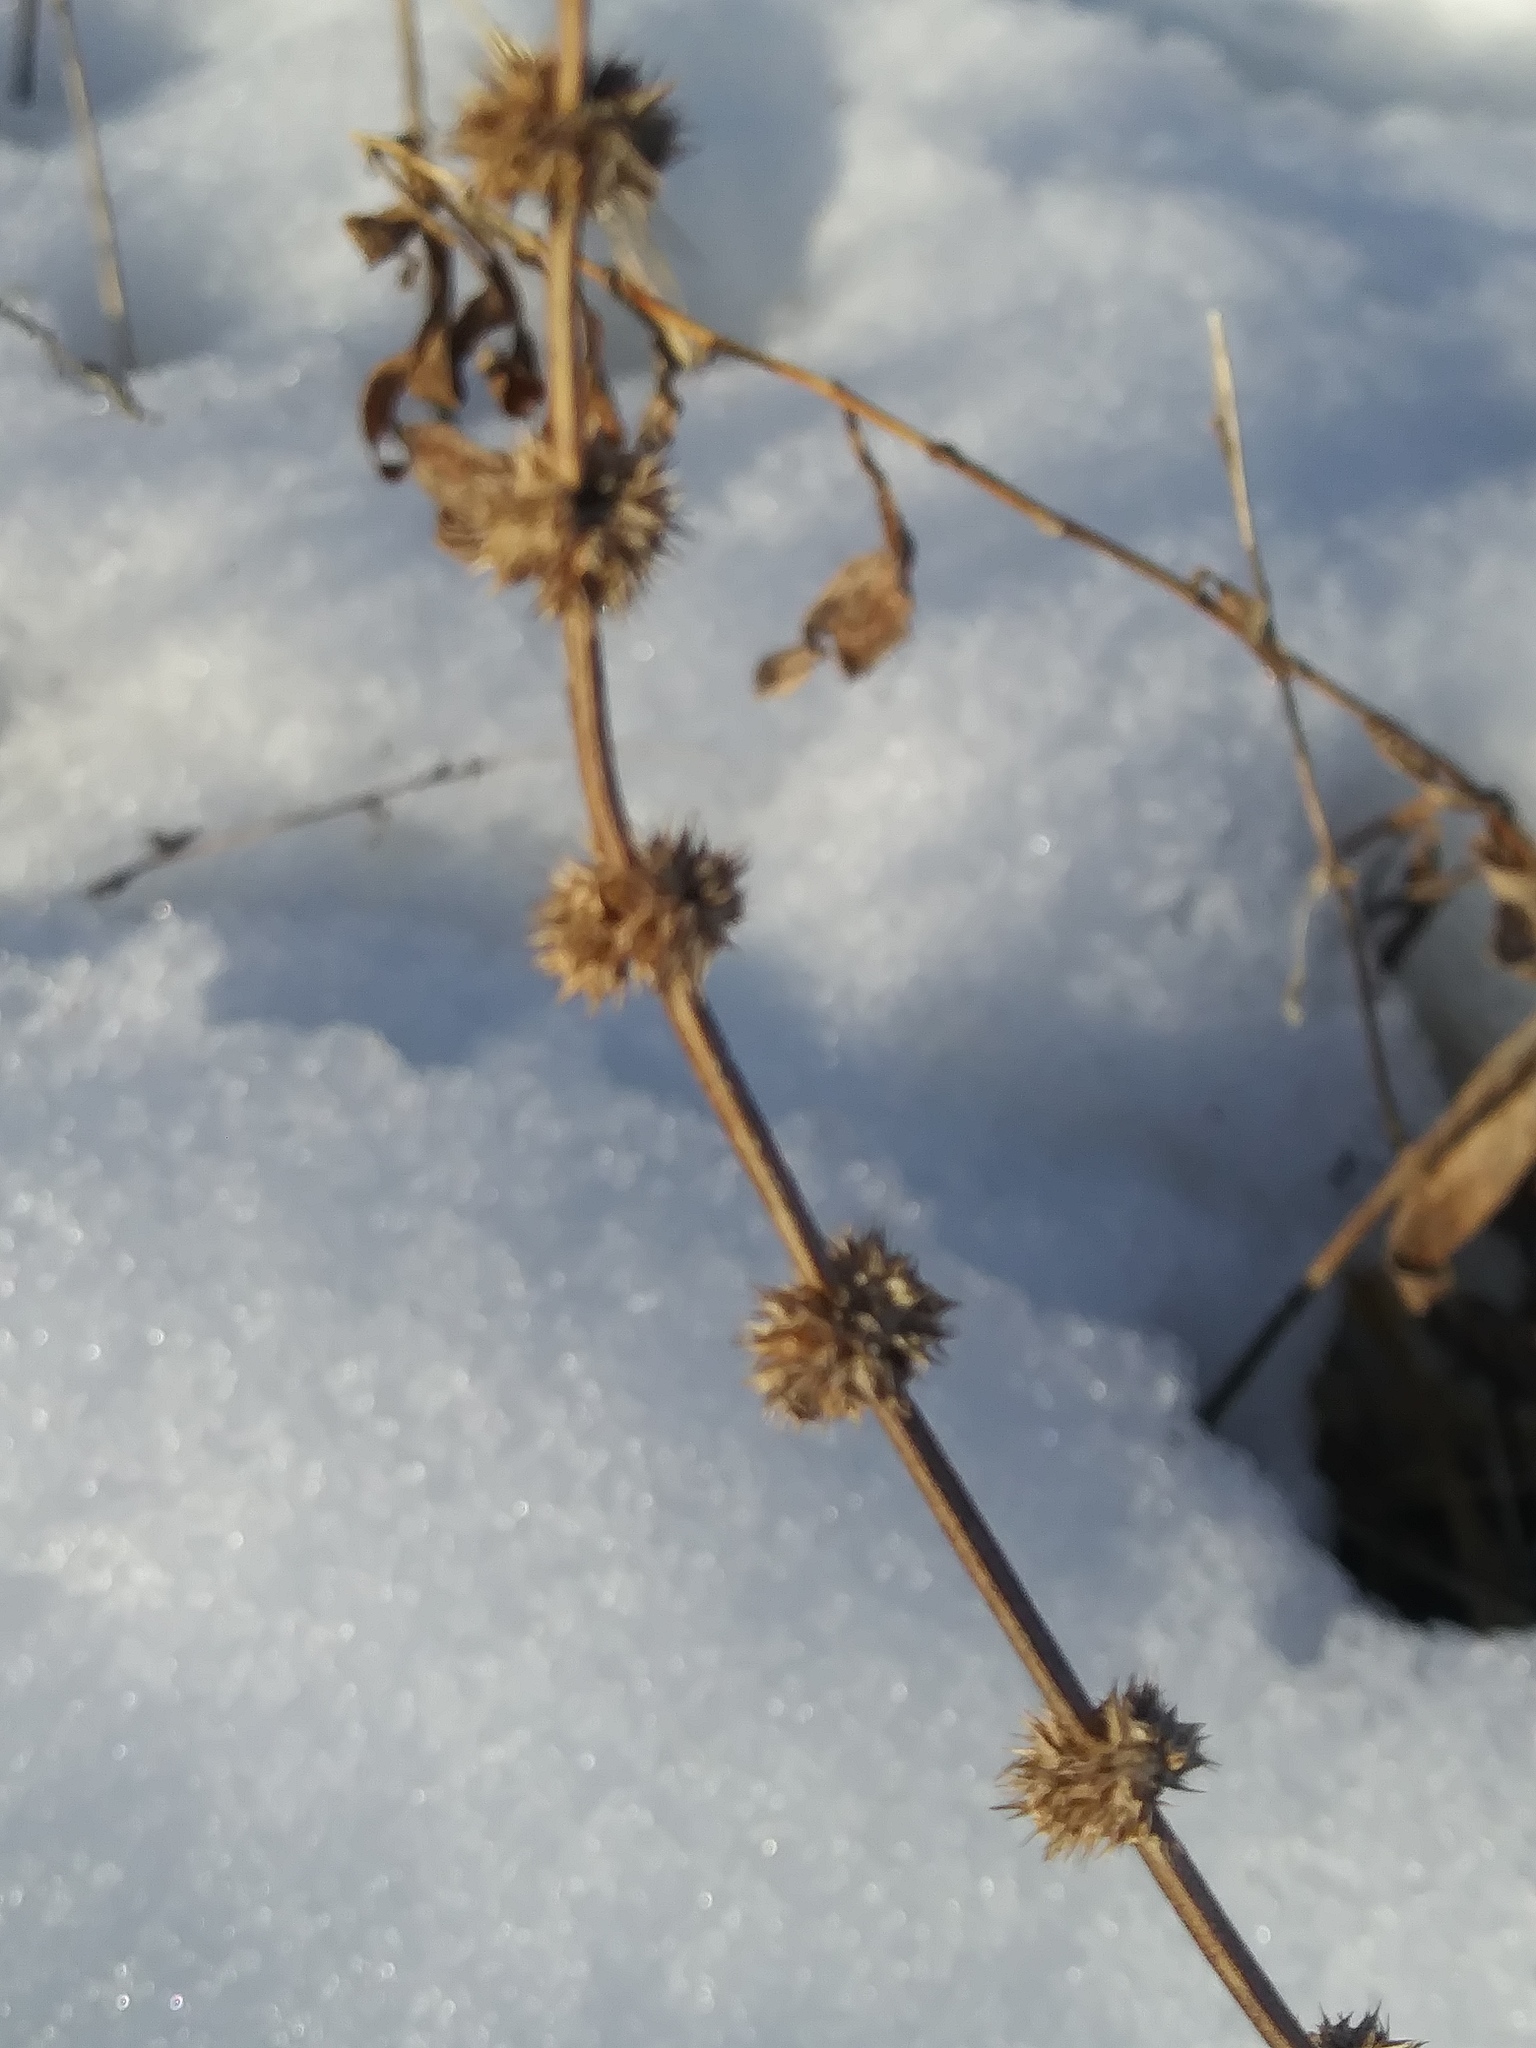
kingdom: Plantae
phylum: Tracheophyta
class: Magnoliopsida
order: Lamiales
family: Lamiaceae
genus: Leonurus
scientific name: Leonurus cardiaca
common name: Motherwort
